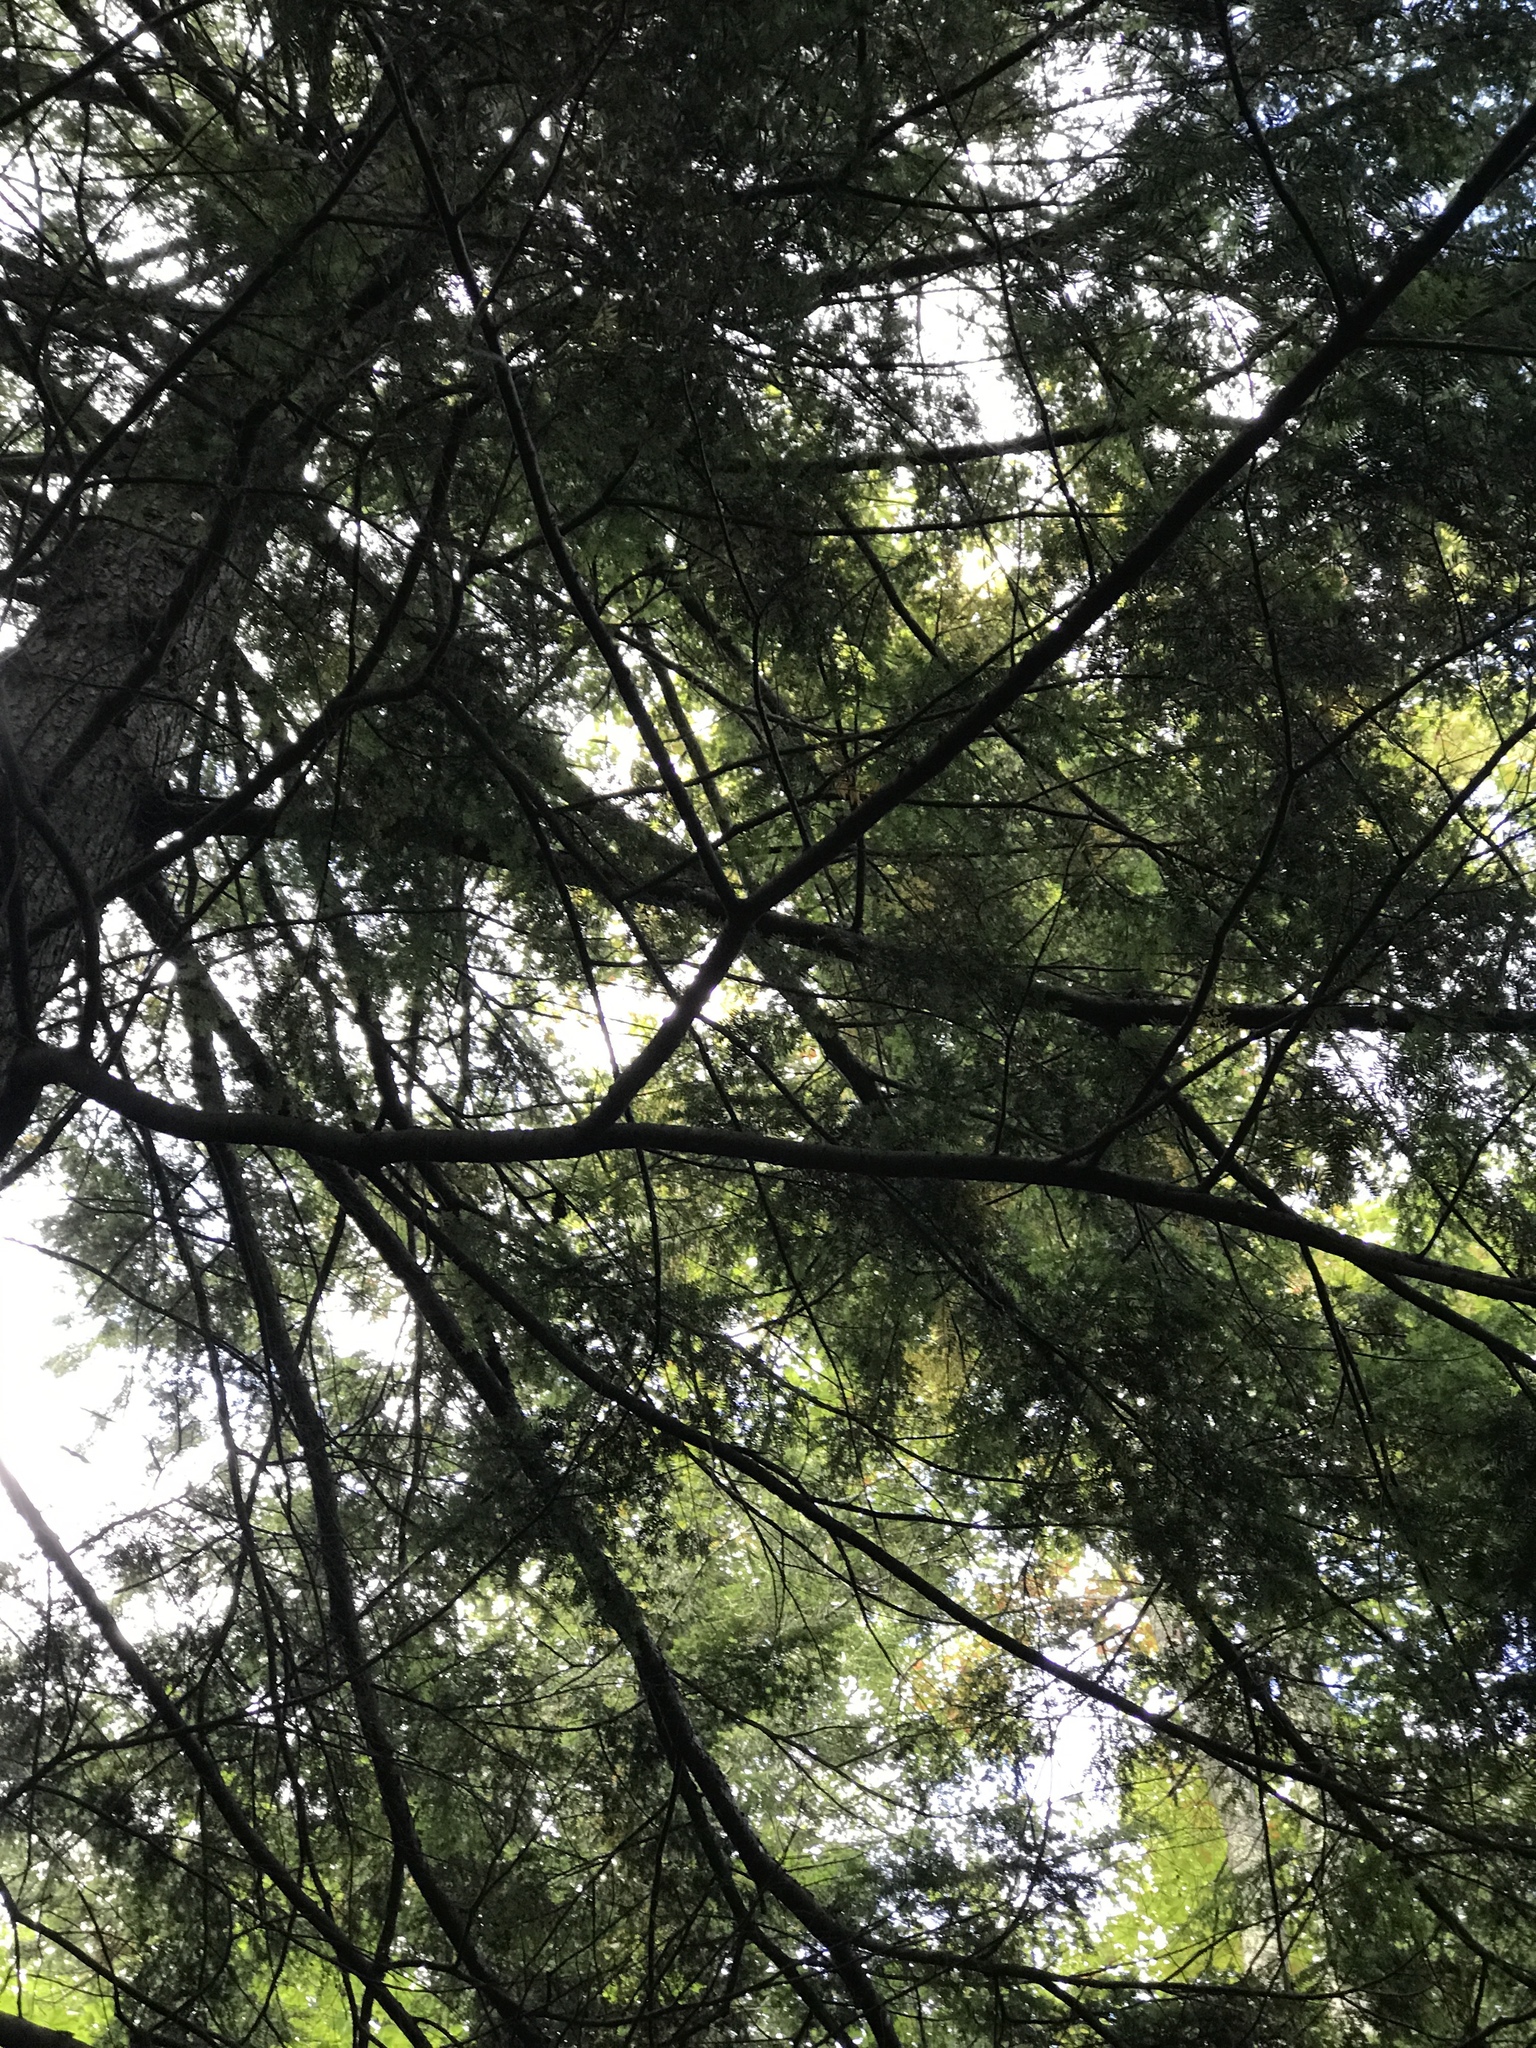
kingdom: Plantae
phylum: Tracheophyta
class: Pinopsida
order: Pinales
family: Pinaceae
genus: Tsuga
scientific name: Tsuga canadensis
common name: Eastern hemlock
